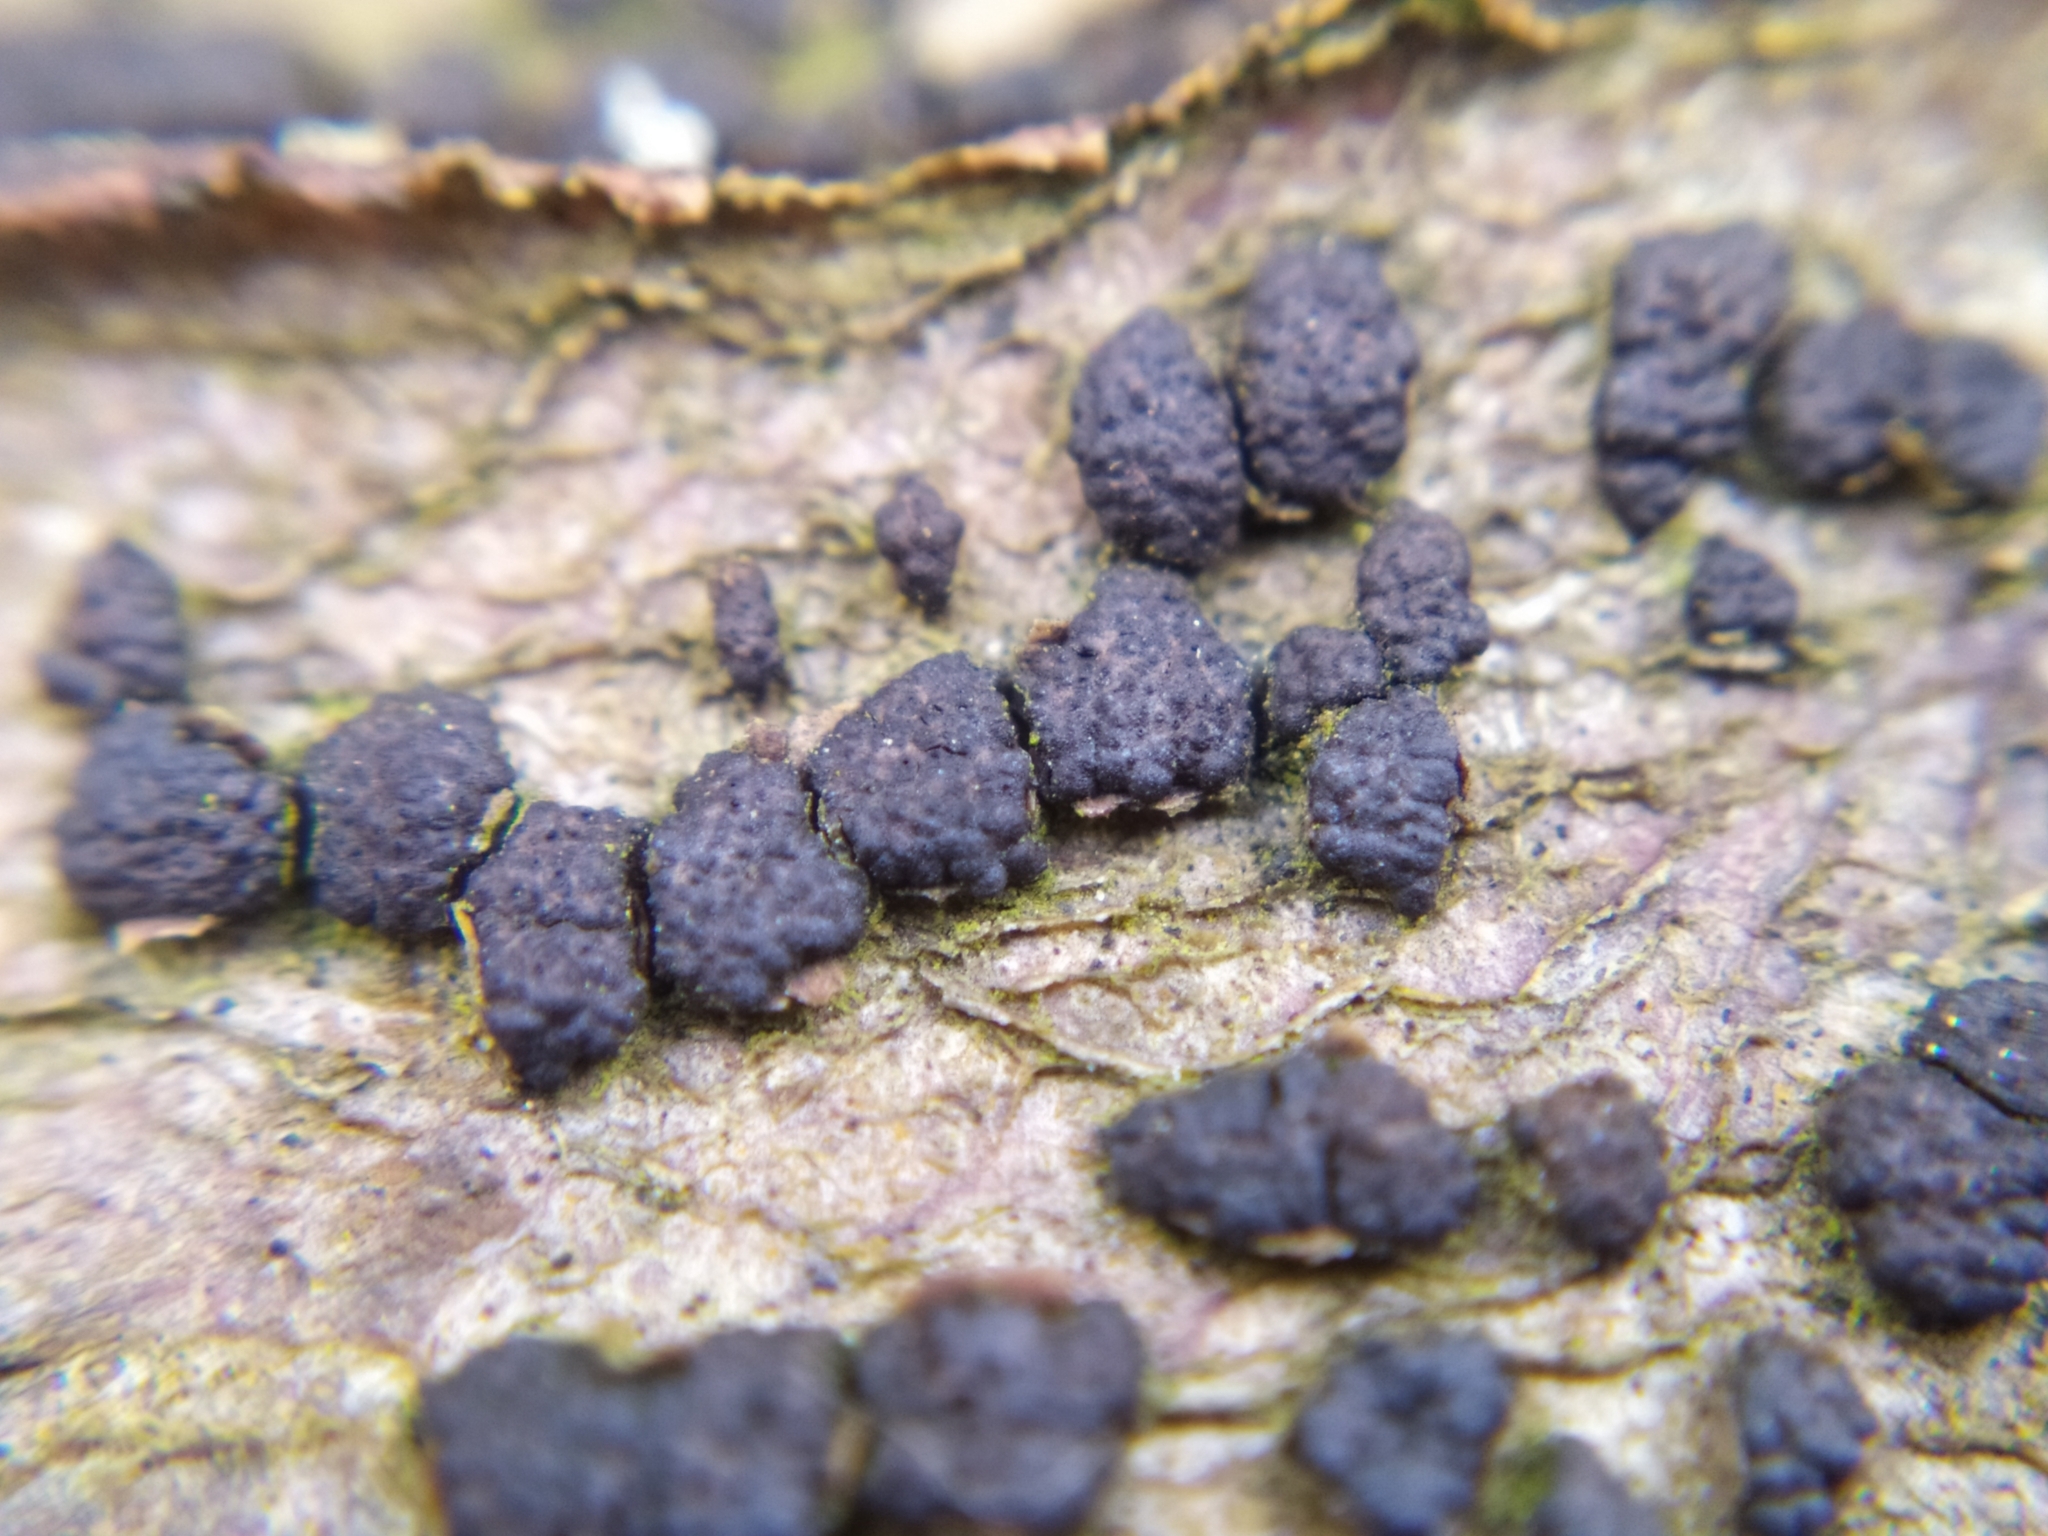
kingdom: Fungi
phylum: Ascomycota
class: Sordariomycetes
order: Xylariales
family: Melogrammataceae
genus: Melogramma
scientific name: Melogramma campylosporum
